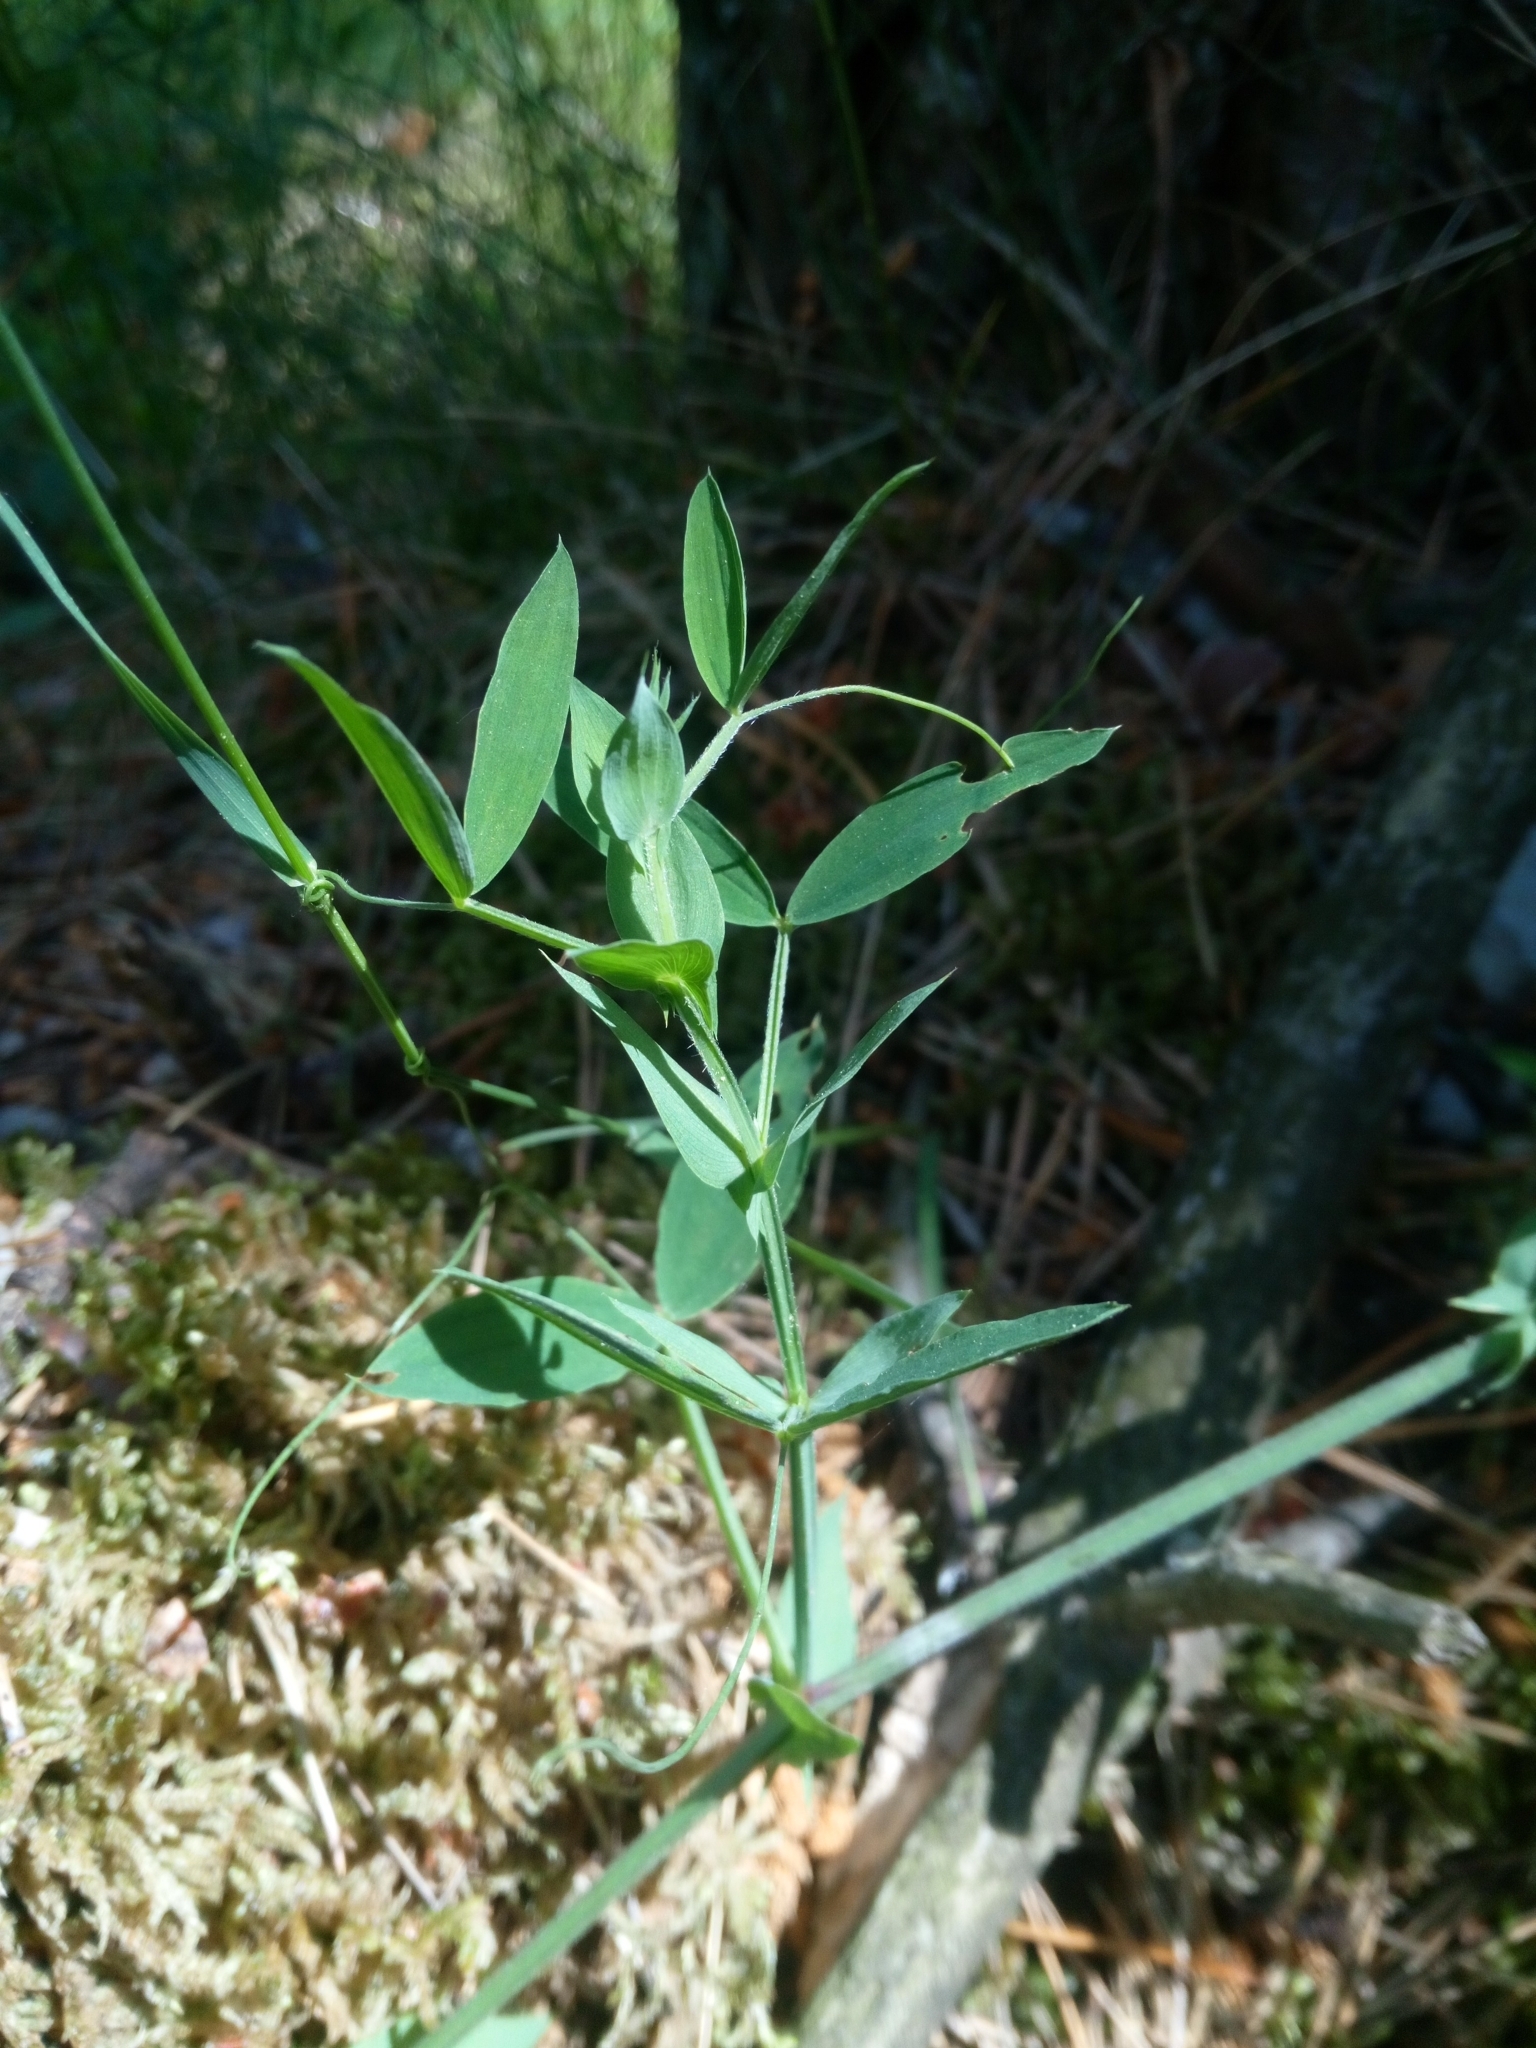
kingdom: Plantae
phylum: Tracheophyta
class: Magnoliopsida
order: Fabales
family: Fabaceae
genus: Lathyrus
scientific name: Lathyrus pratensis
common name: Meadow vetchling
